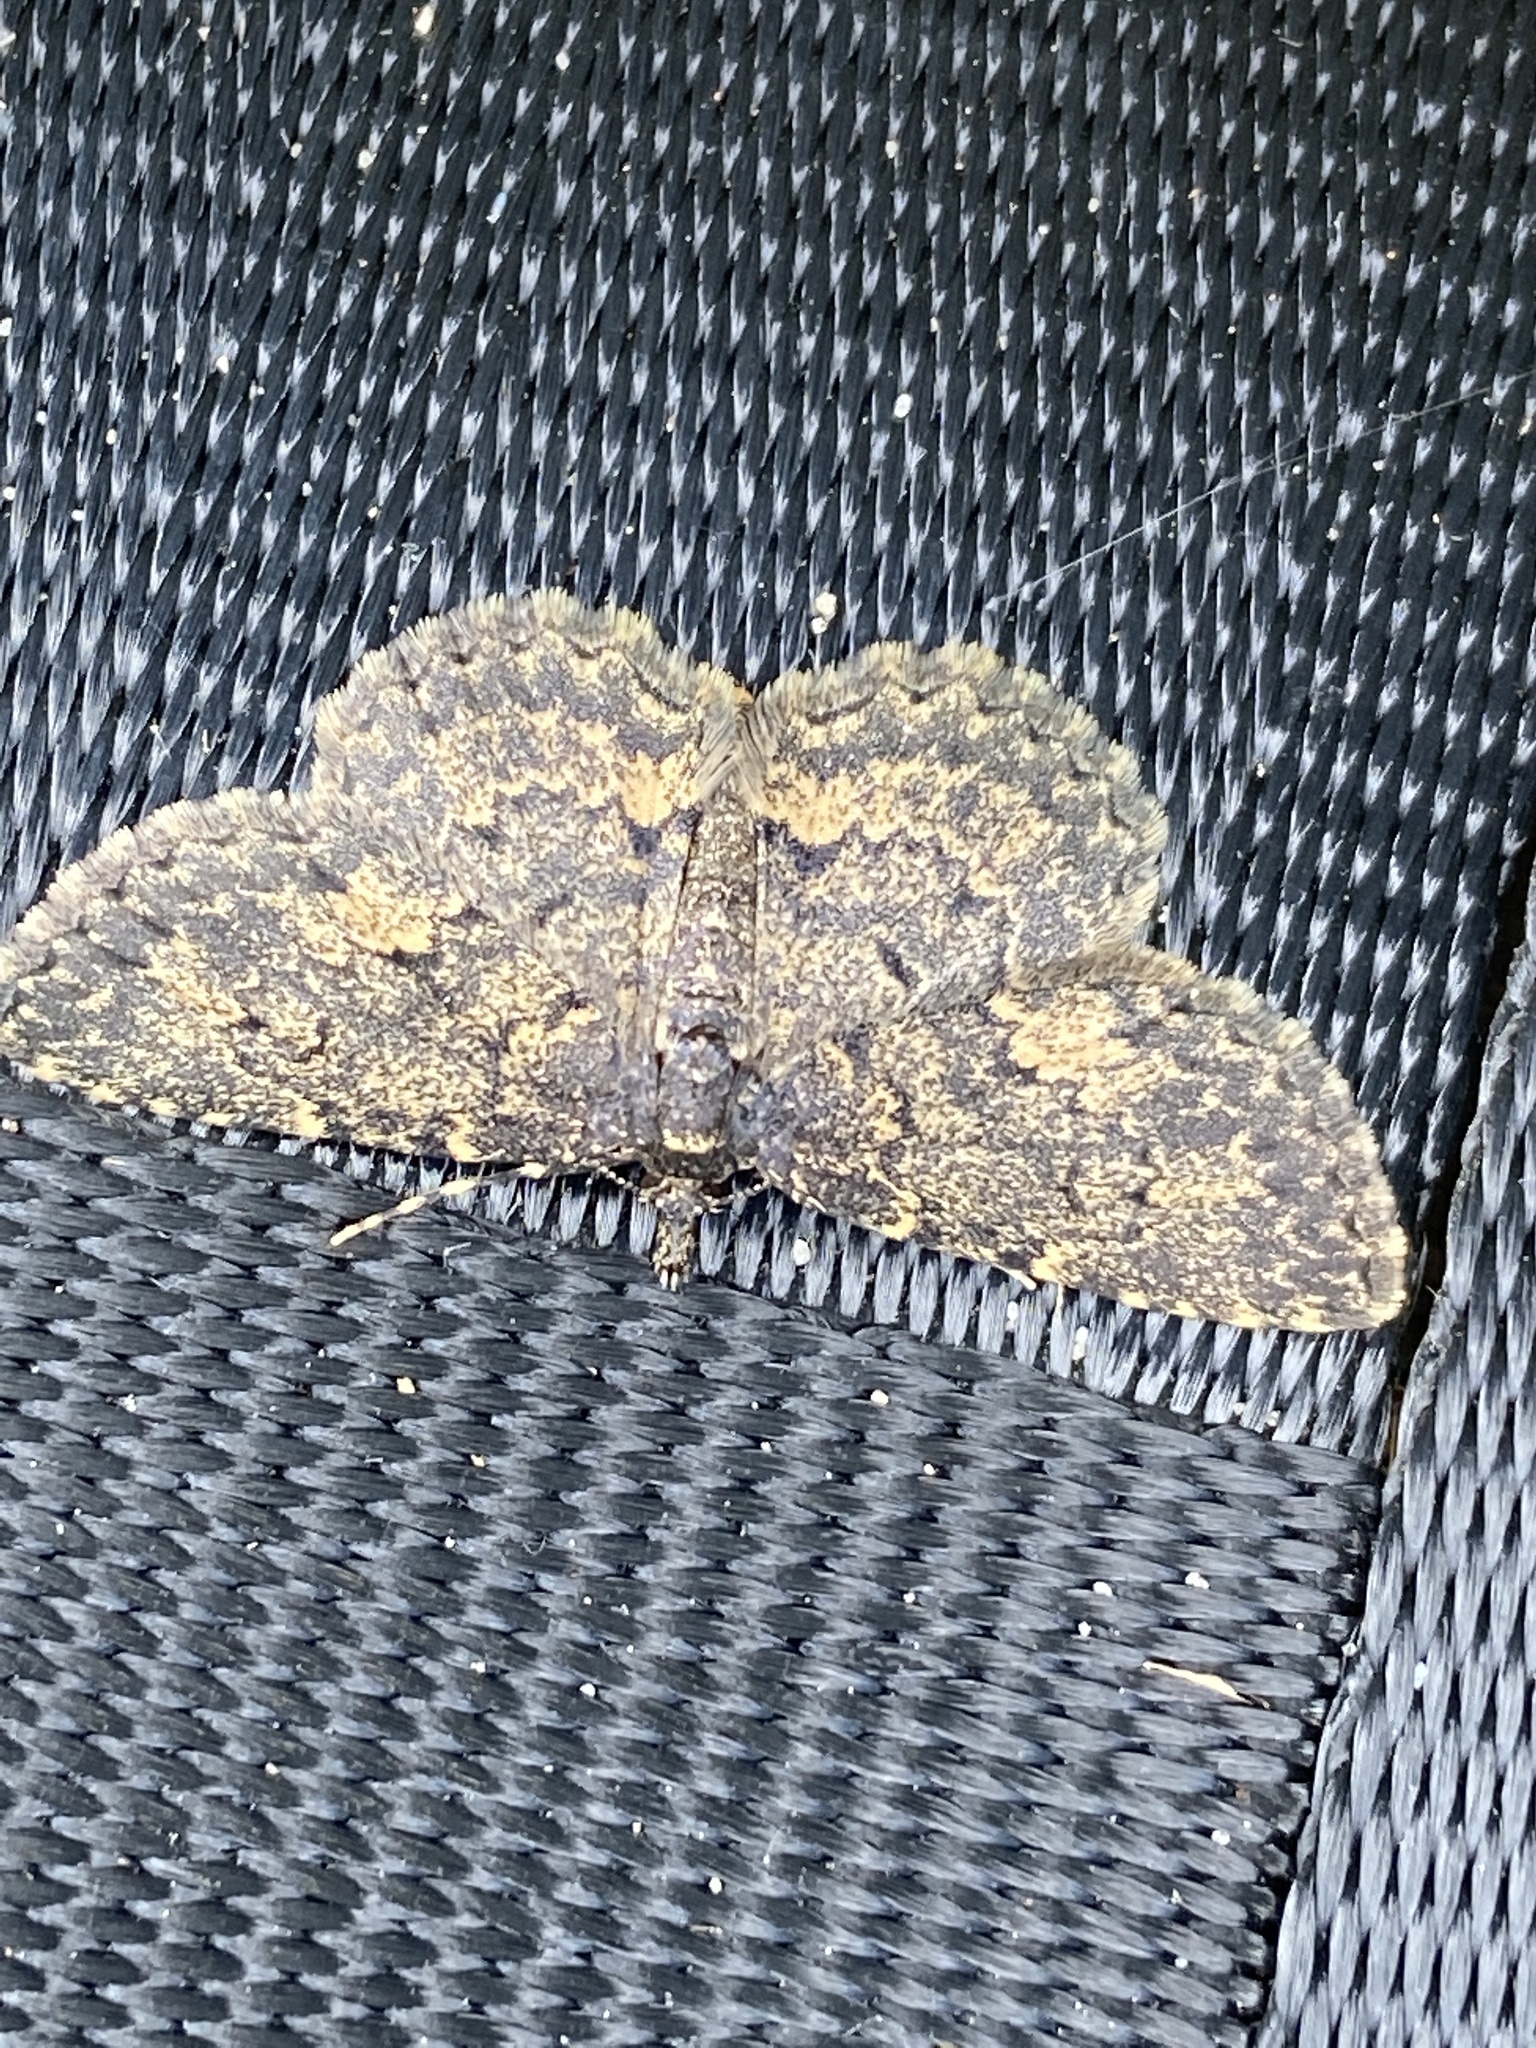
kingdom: Animalia
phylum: Arthropoda
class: Insecta
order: Lepidoptera
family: Erebidae
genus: Parascotia
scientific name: Parascotia fuliginaria
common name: Waved black
